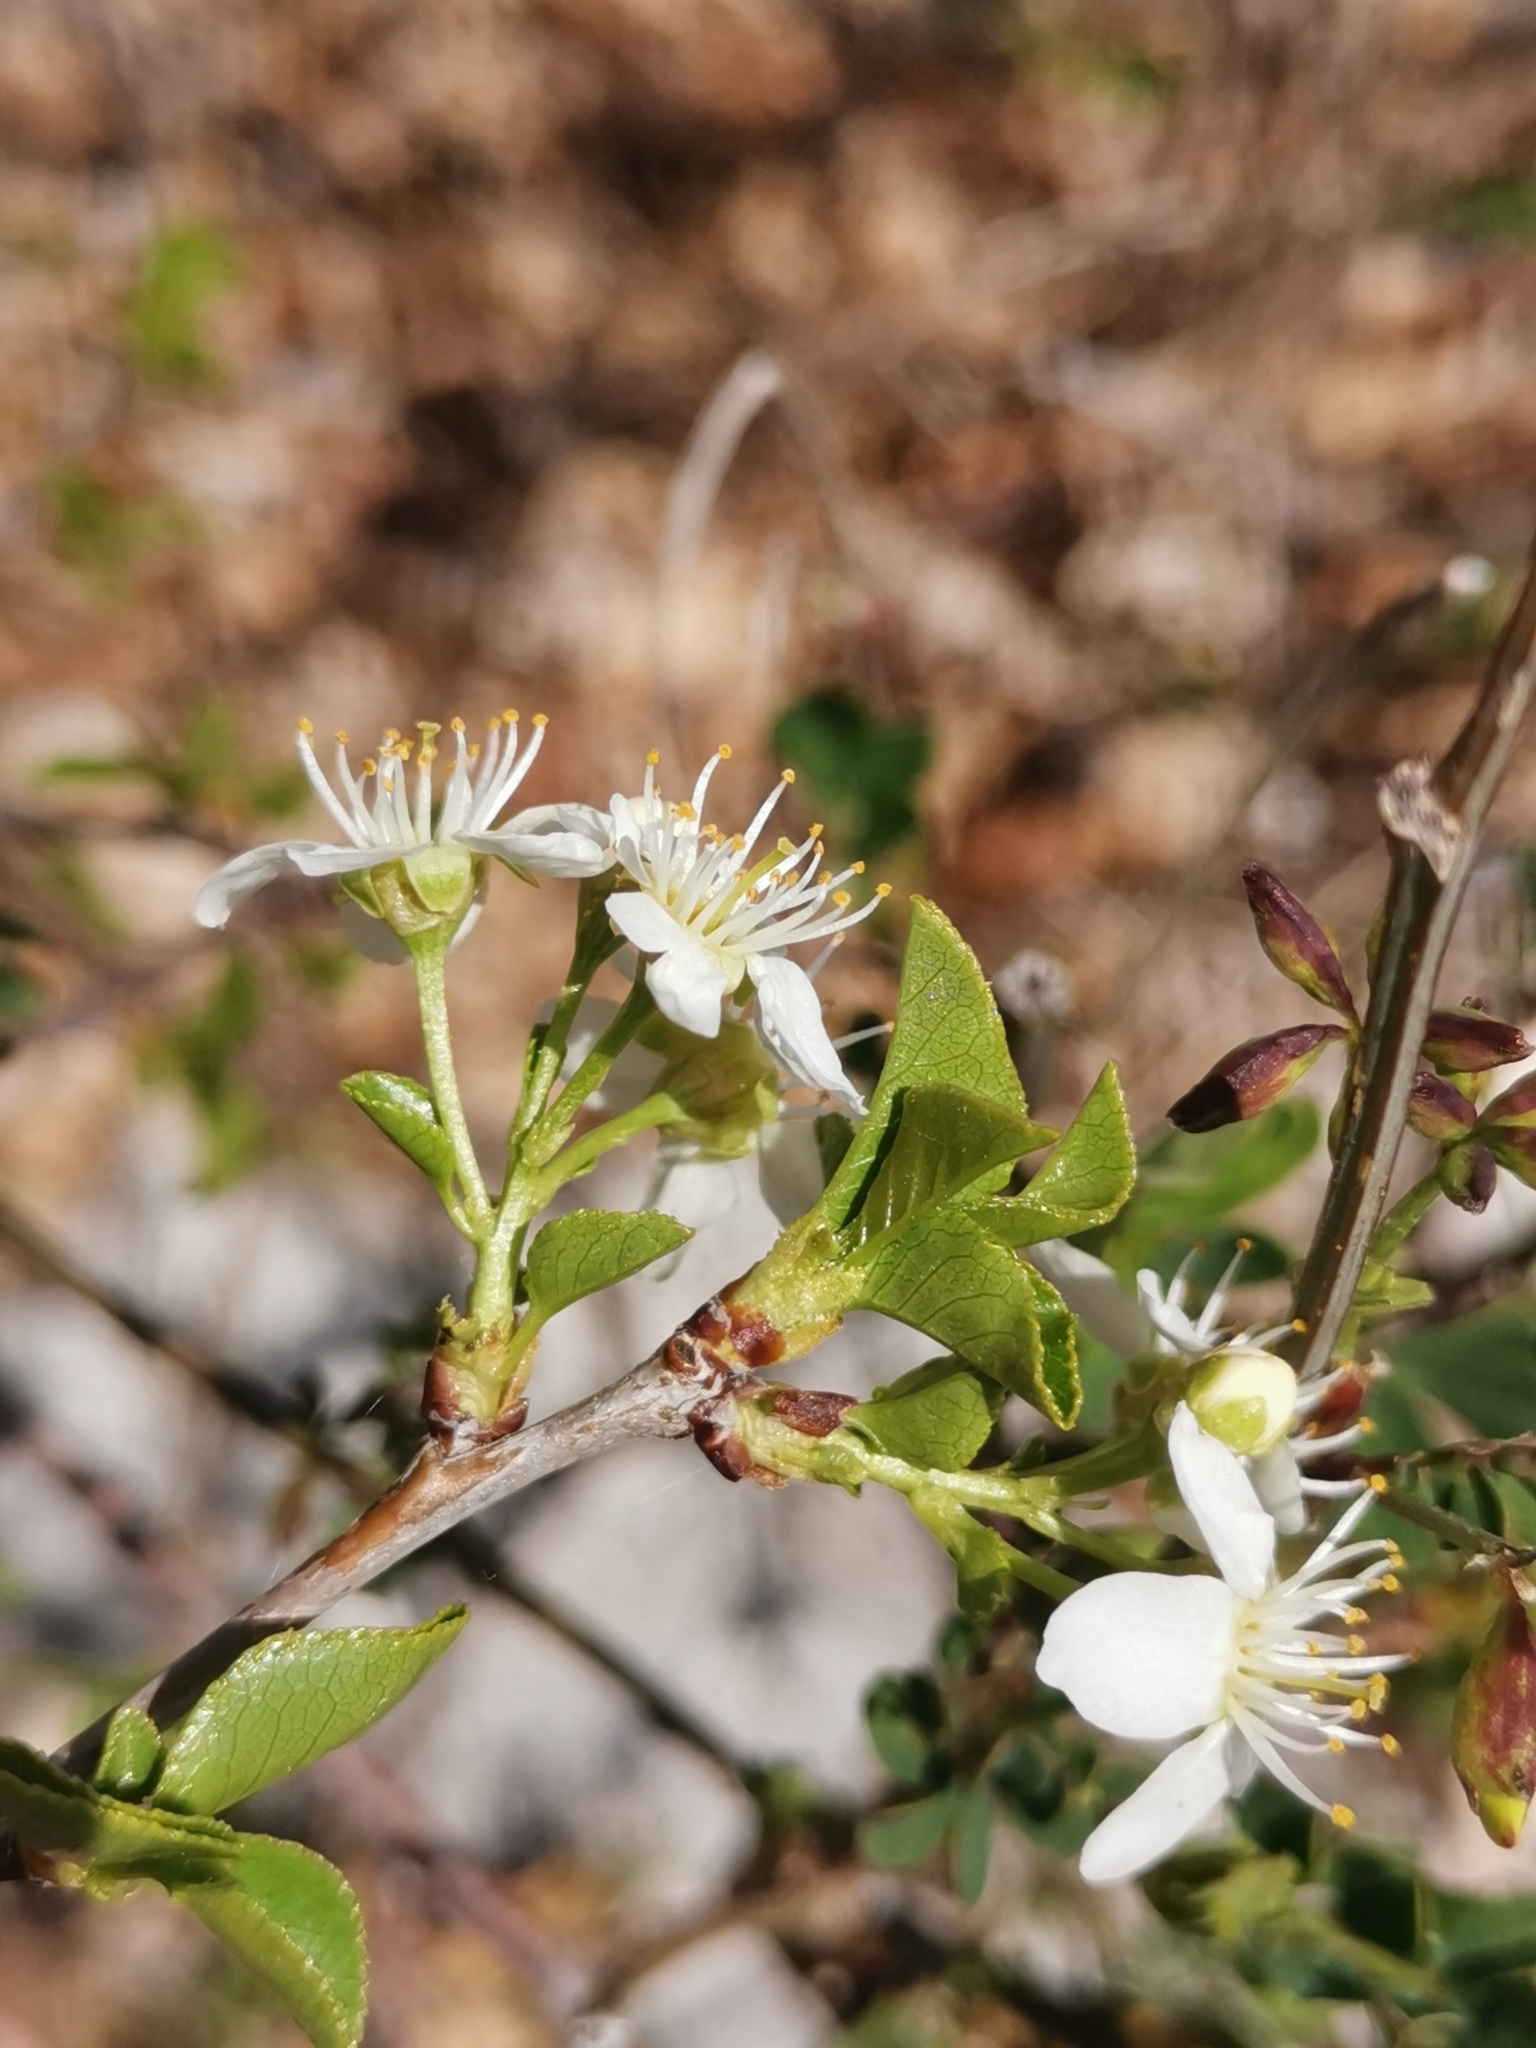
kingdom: Plantae
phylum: Tracheophyta
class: Magnoliopsida
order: Rosales
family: Rosaceae
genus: Prunus
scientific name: Prunus mahaleb
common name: Mahaleb cherry
